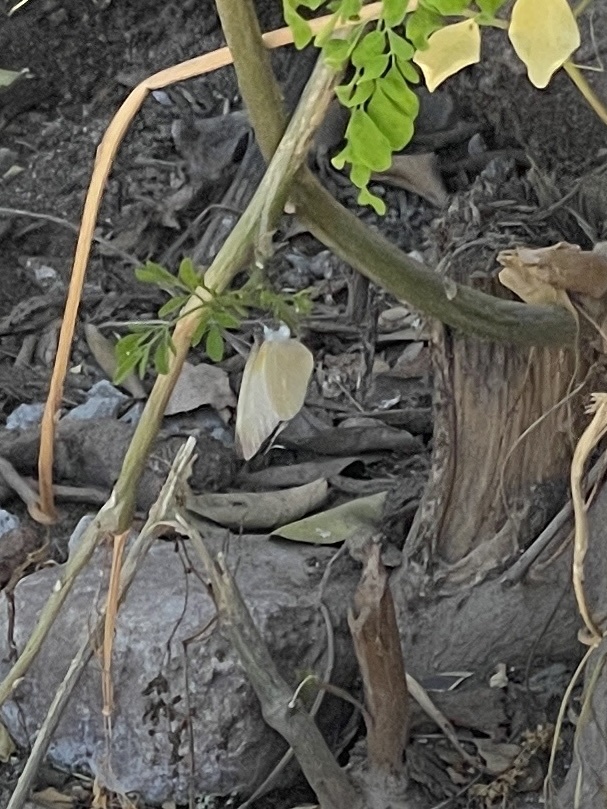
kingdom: Animalia
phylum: Arthropoda
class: Insecta
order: Lepidoptera
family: Pieridae
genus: Glutophrissa
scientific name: Glutophrissa drusilla
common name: Florida white
